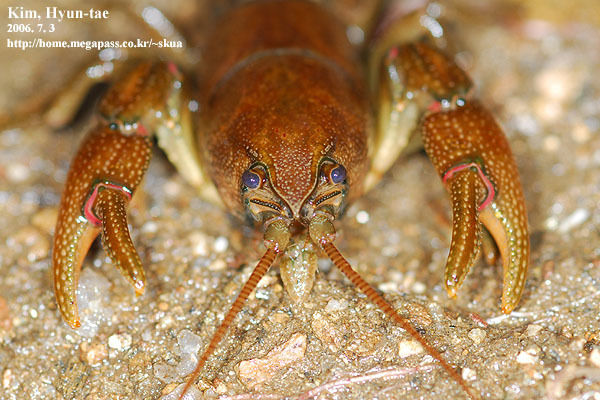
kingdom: Animalia
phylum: Arthropoda
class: Malacostraca
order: Decapoda
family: Cambaroididae
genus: Cambaroides
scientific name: Cambaroides similis
